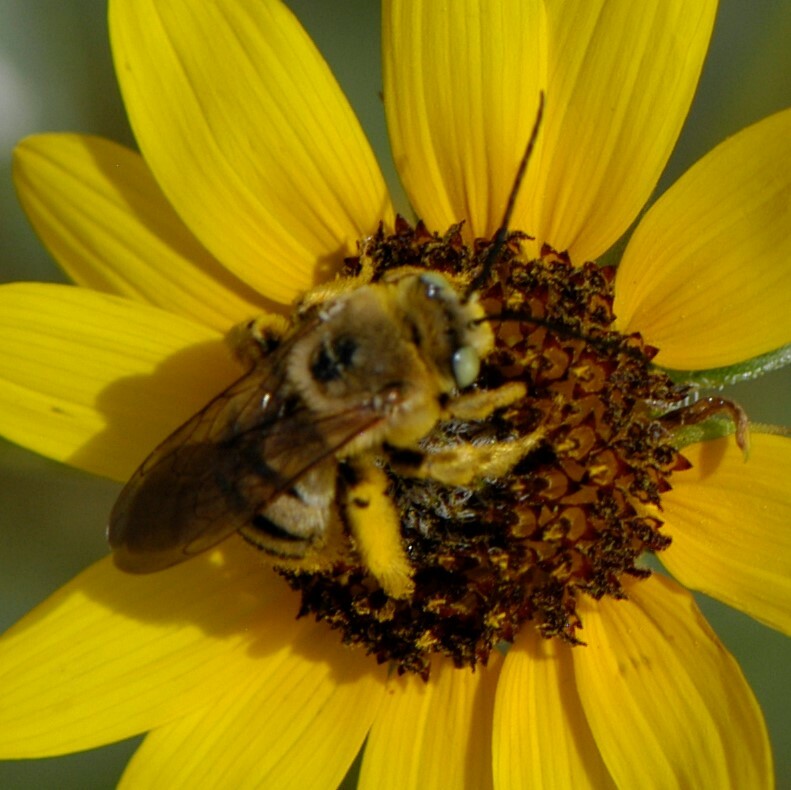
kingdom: Animalia
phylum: Arthropoda
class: Insecta
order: Hymenoptera
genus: Epimelissodes
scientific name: Epimelissodes
